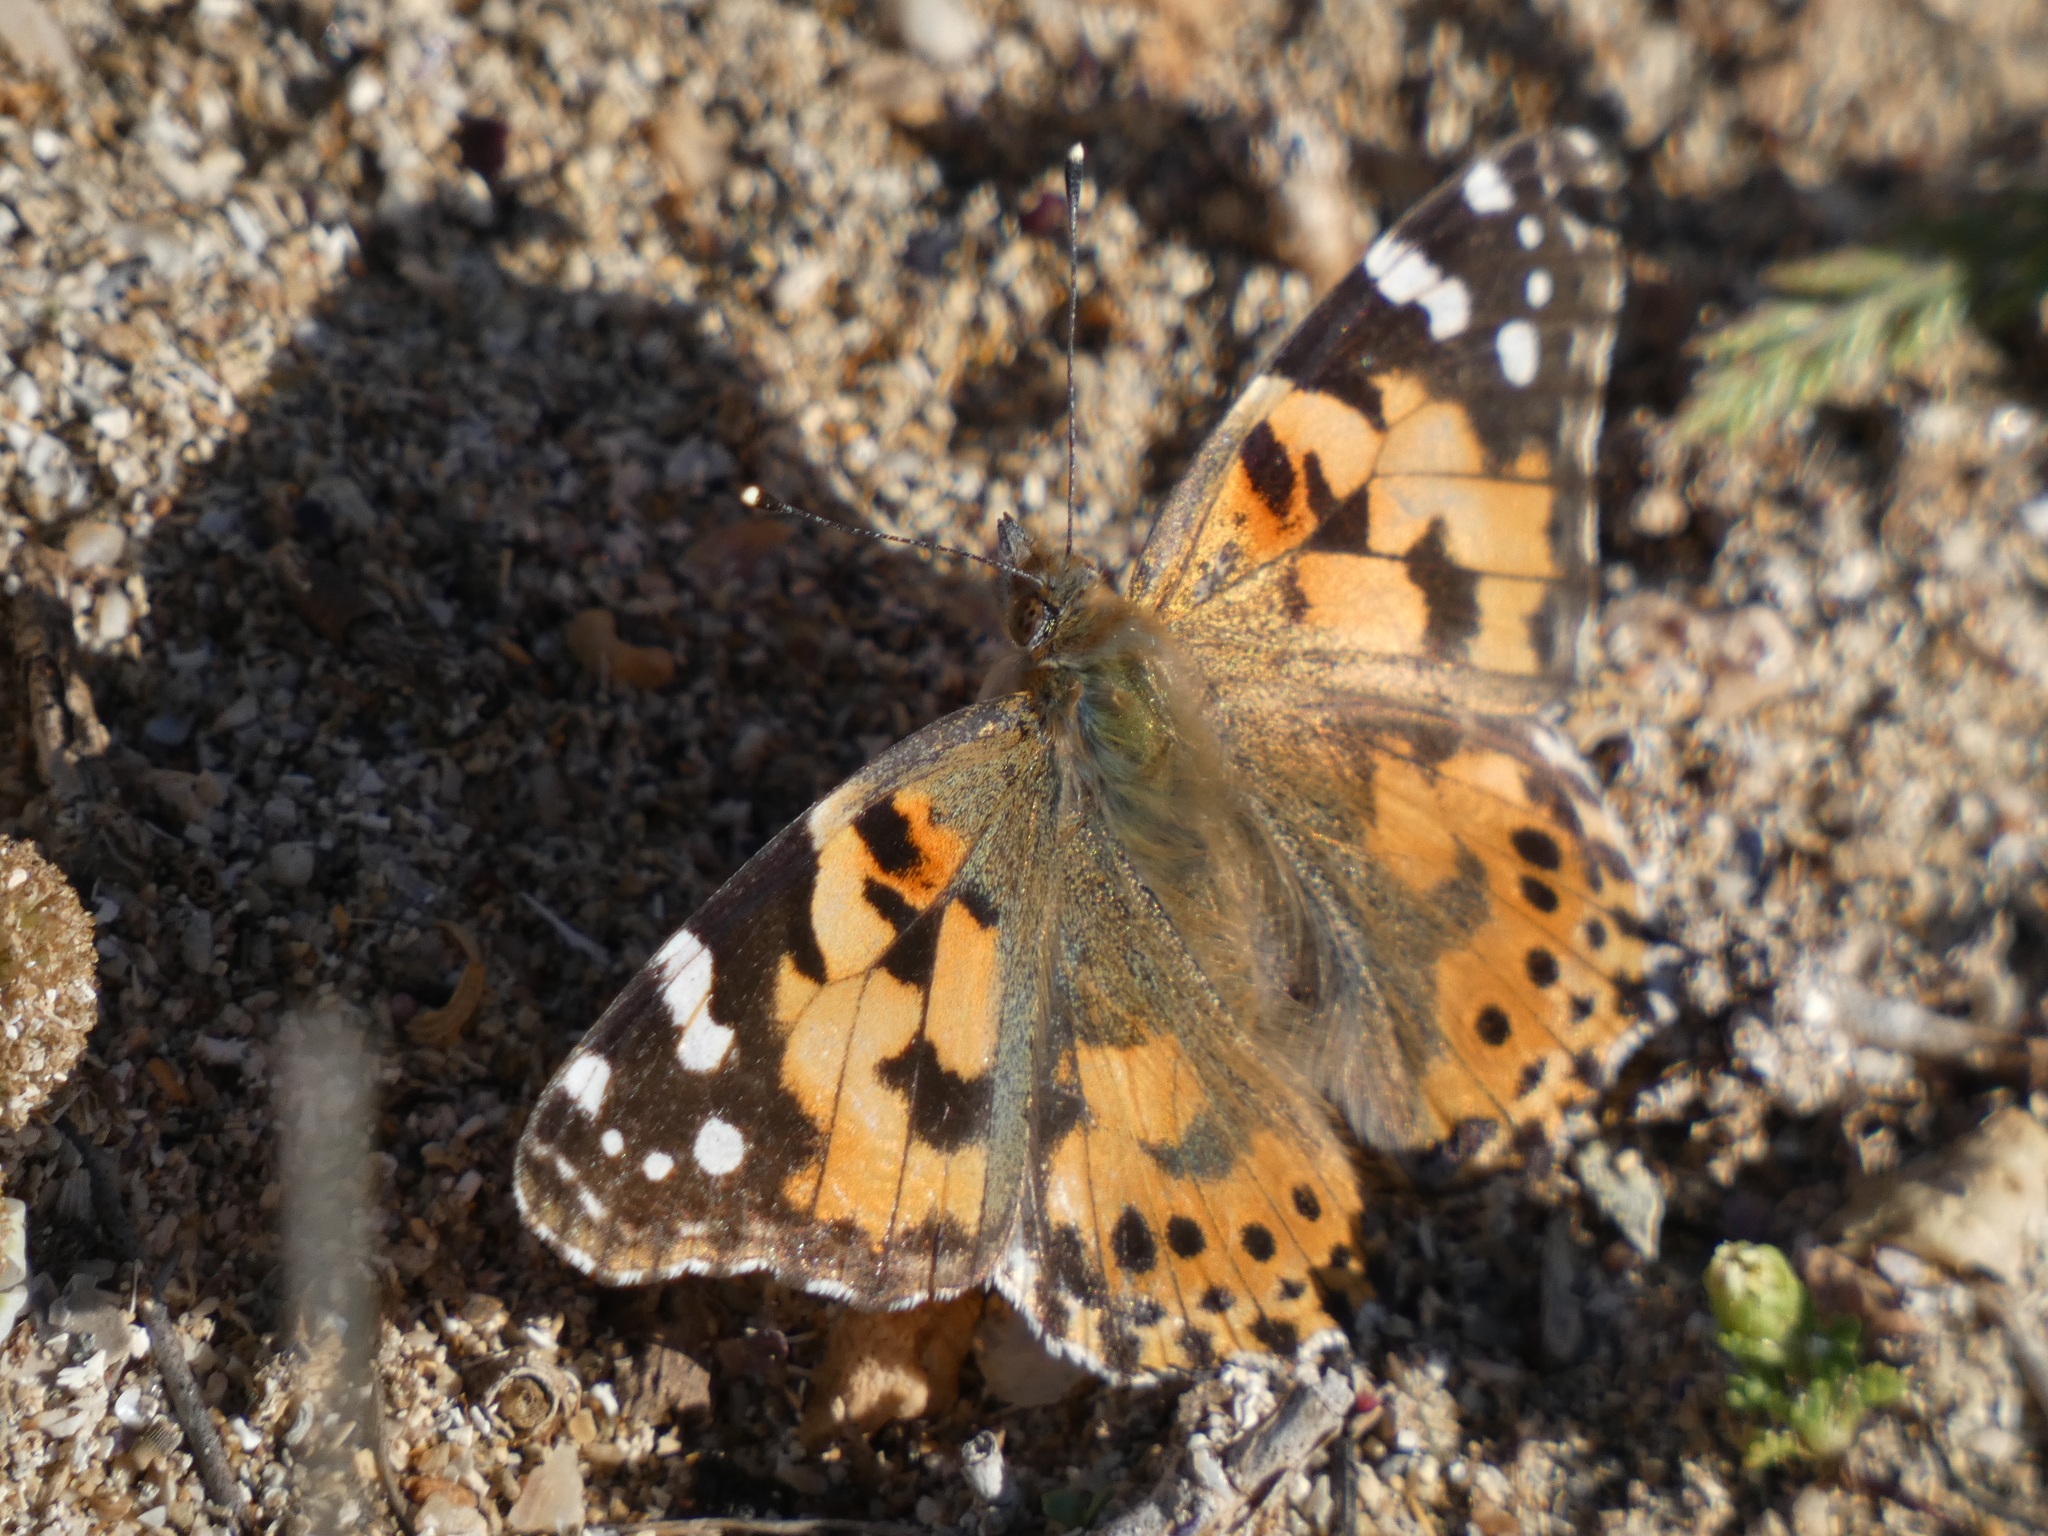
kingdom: Animalia
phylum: Arthropoda
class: Insecta
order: Lepidoptera
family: Nymphalidae
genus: Vanessa
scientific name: Vanessa cardui
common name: Painted lady
